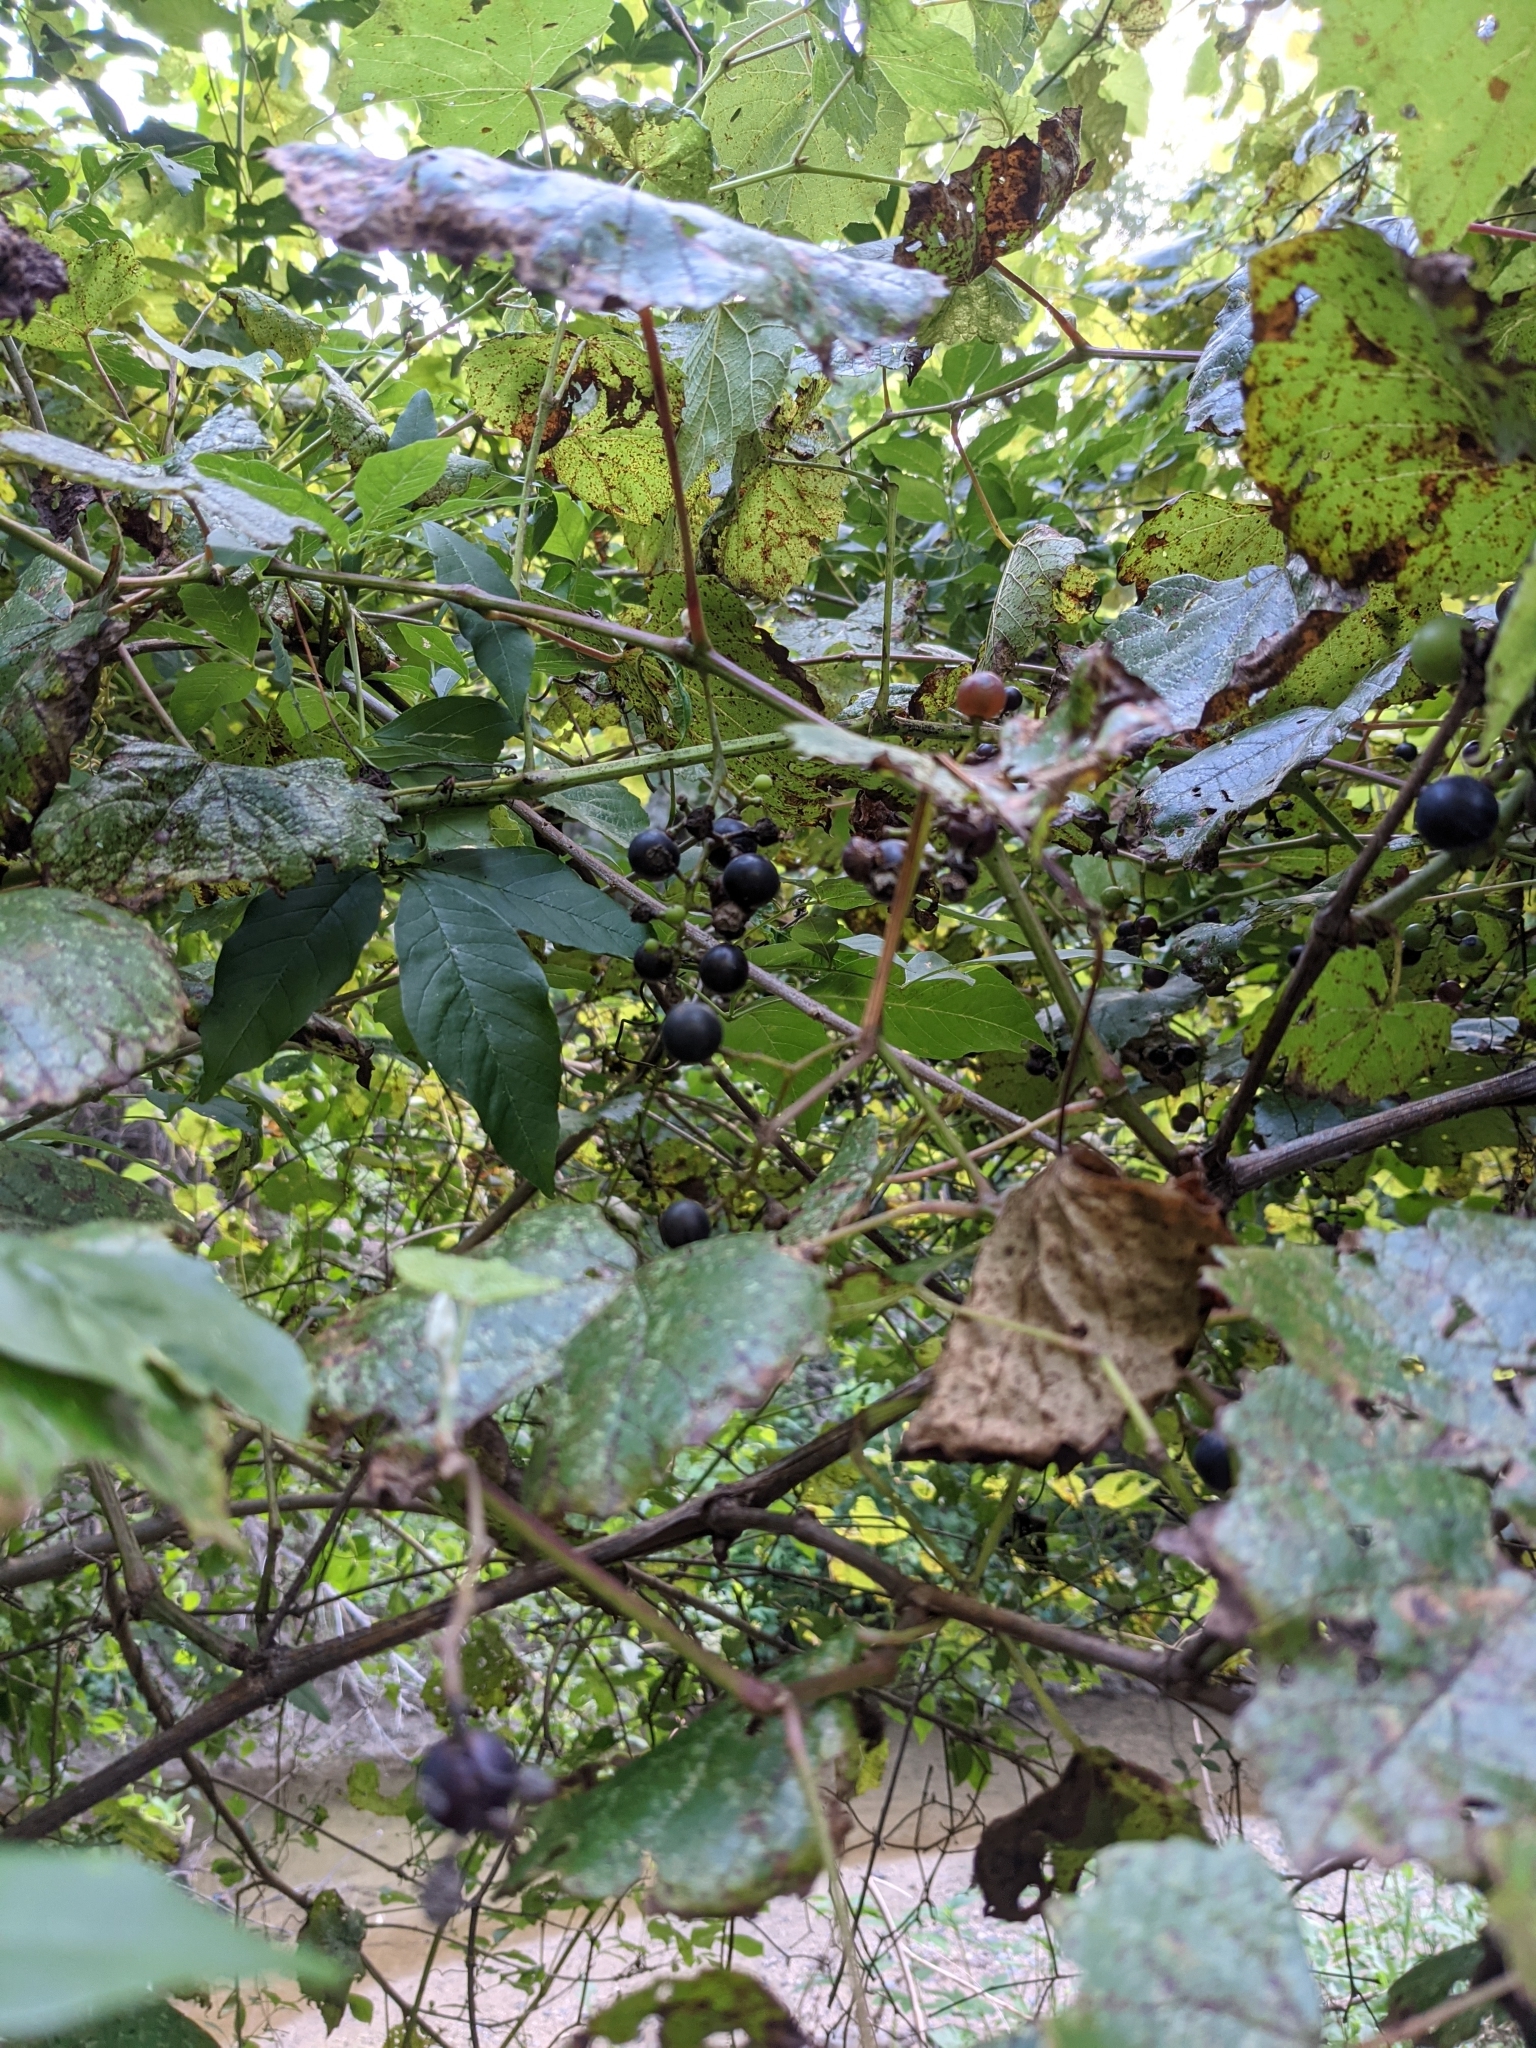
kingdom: Plantae
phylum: Tracheophyta
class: Magnoliopsida
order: Vitales
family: Vitaceae
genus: Vitis
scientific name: Vitis champinii
